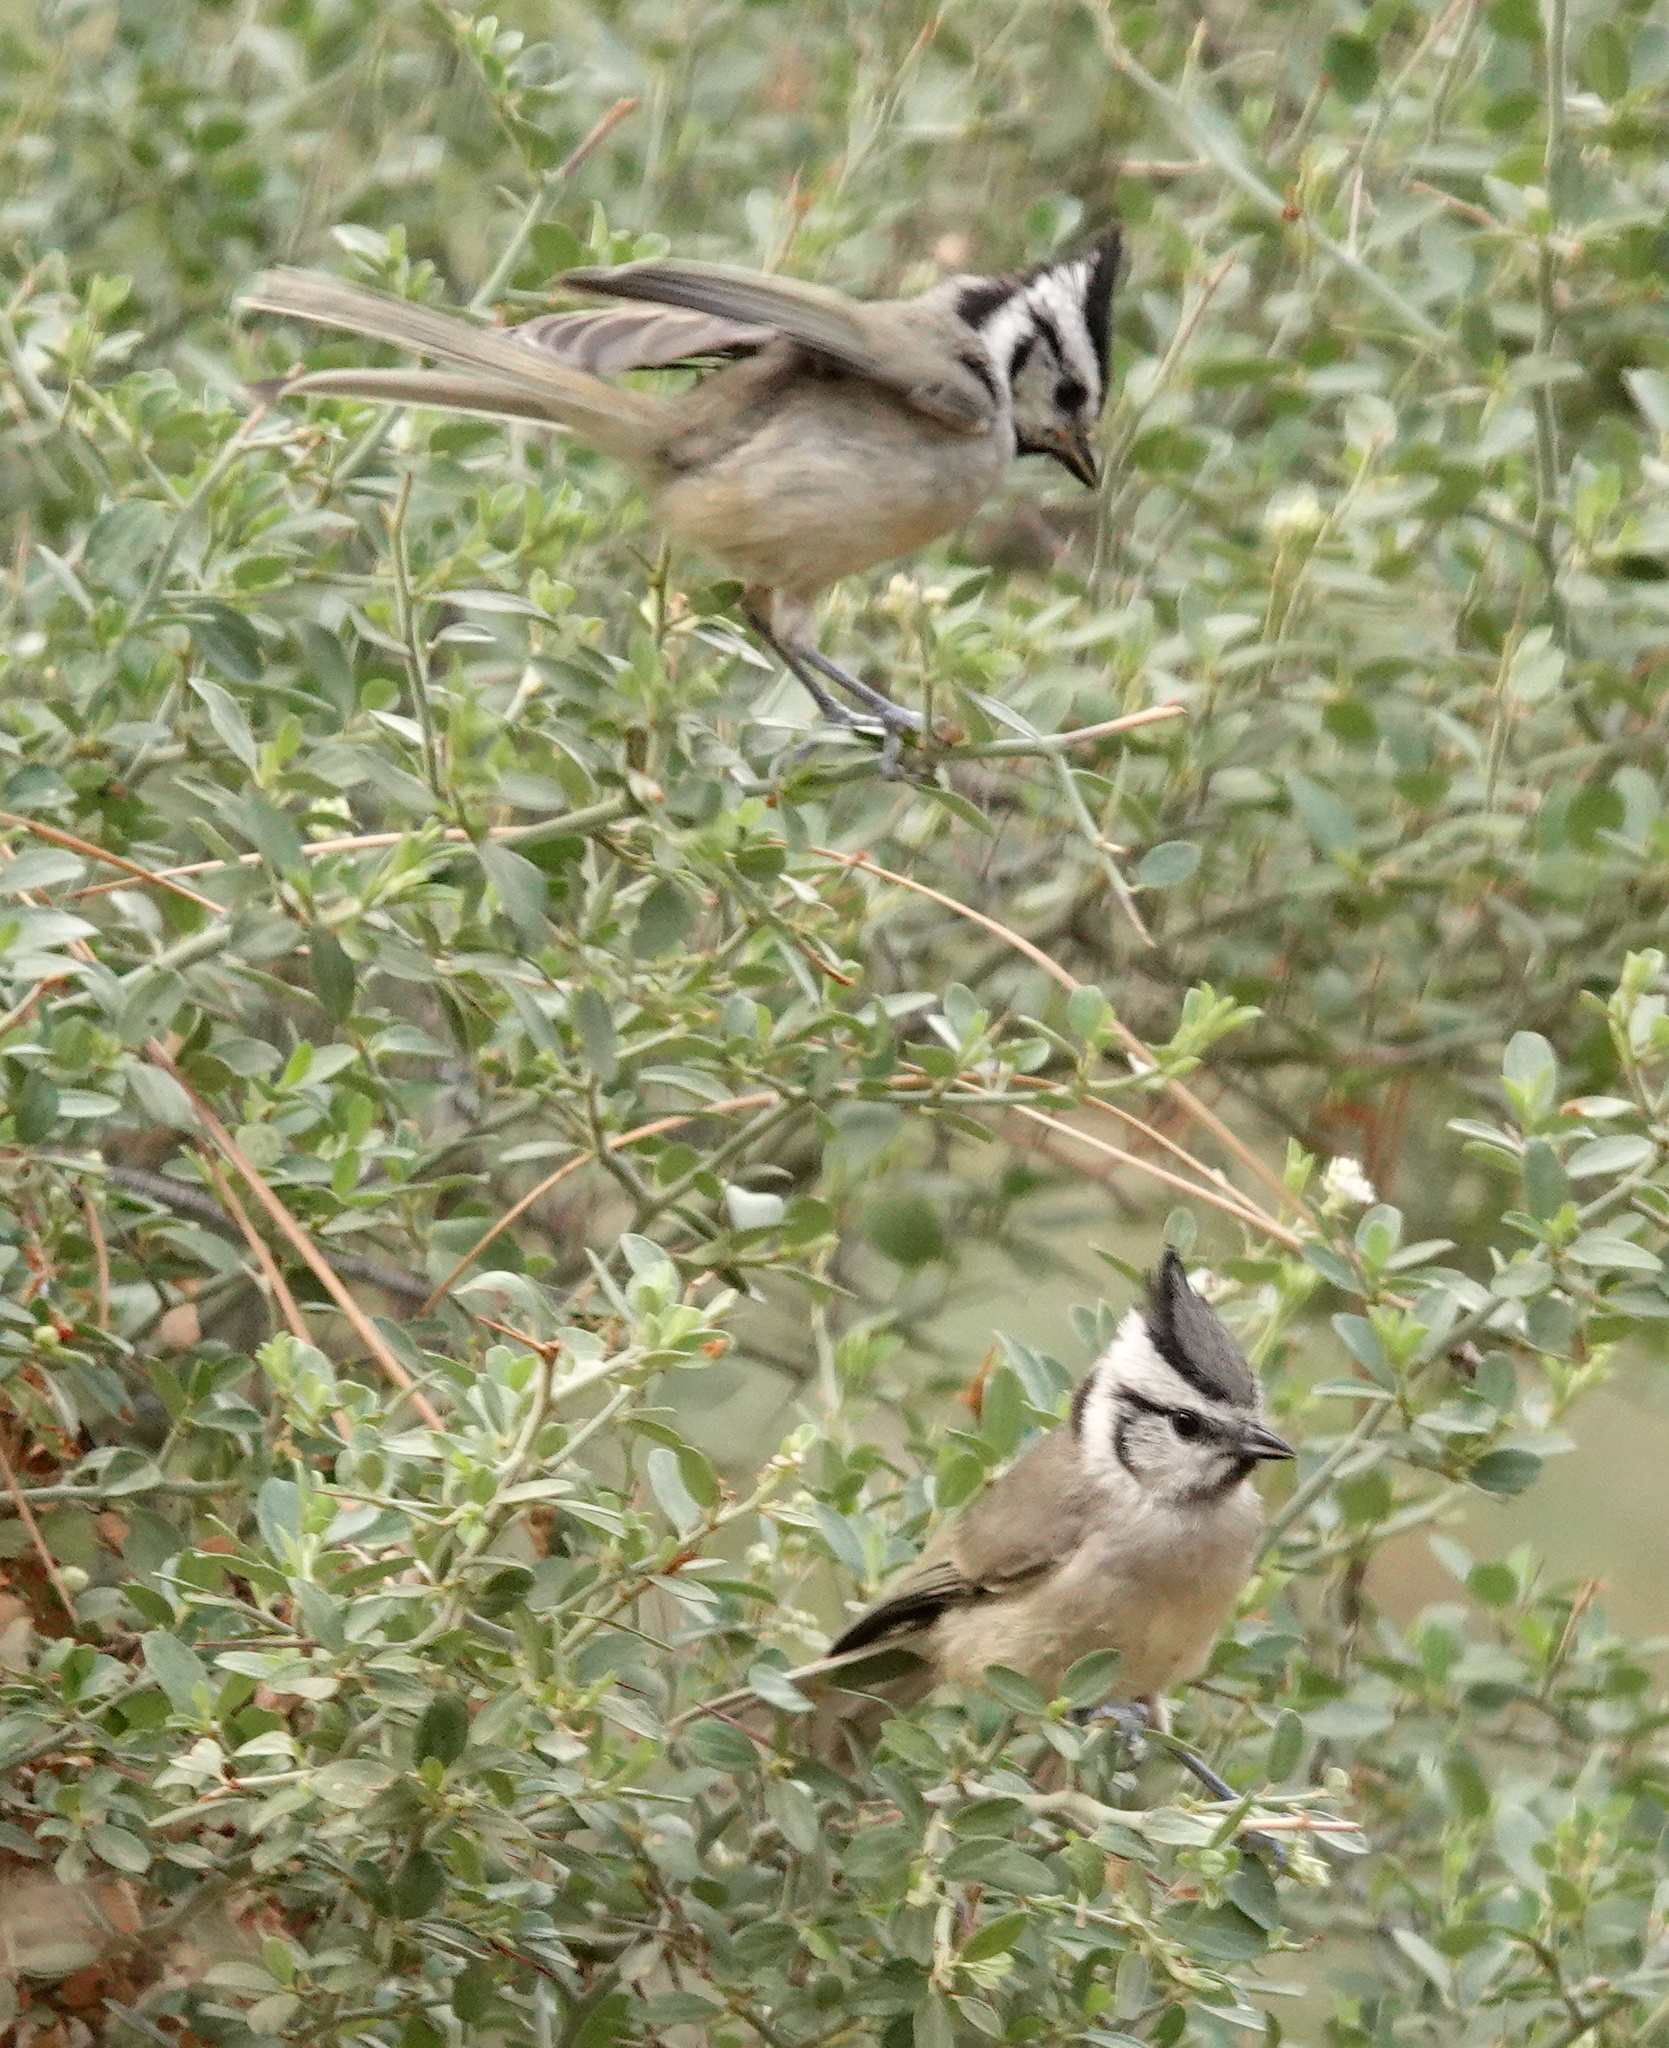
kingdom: Animalia
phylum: Chordata
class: Aves
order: Passeriformes
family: Paridae
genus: Baeolophus
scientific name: Baeolophus wollweberi
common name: Bridled titmouse
